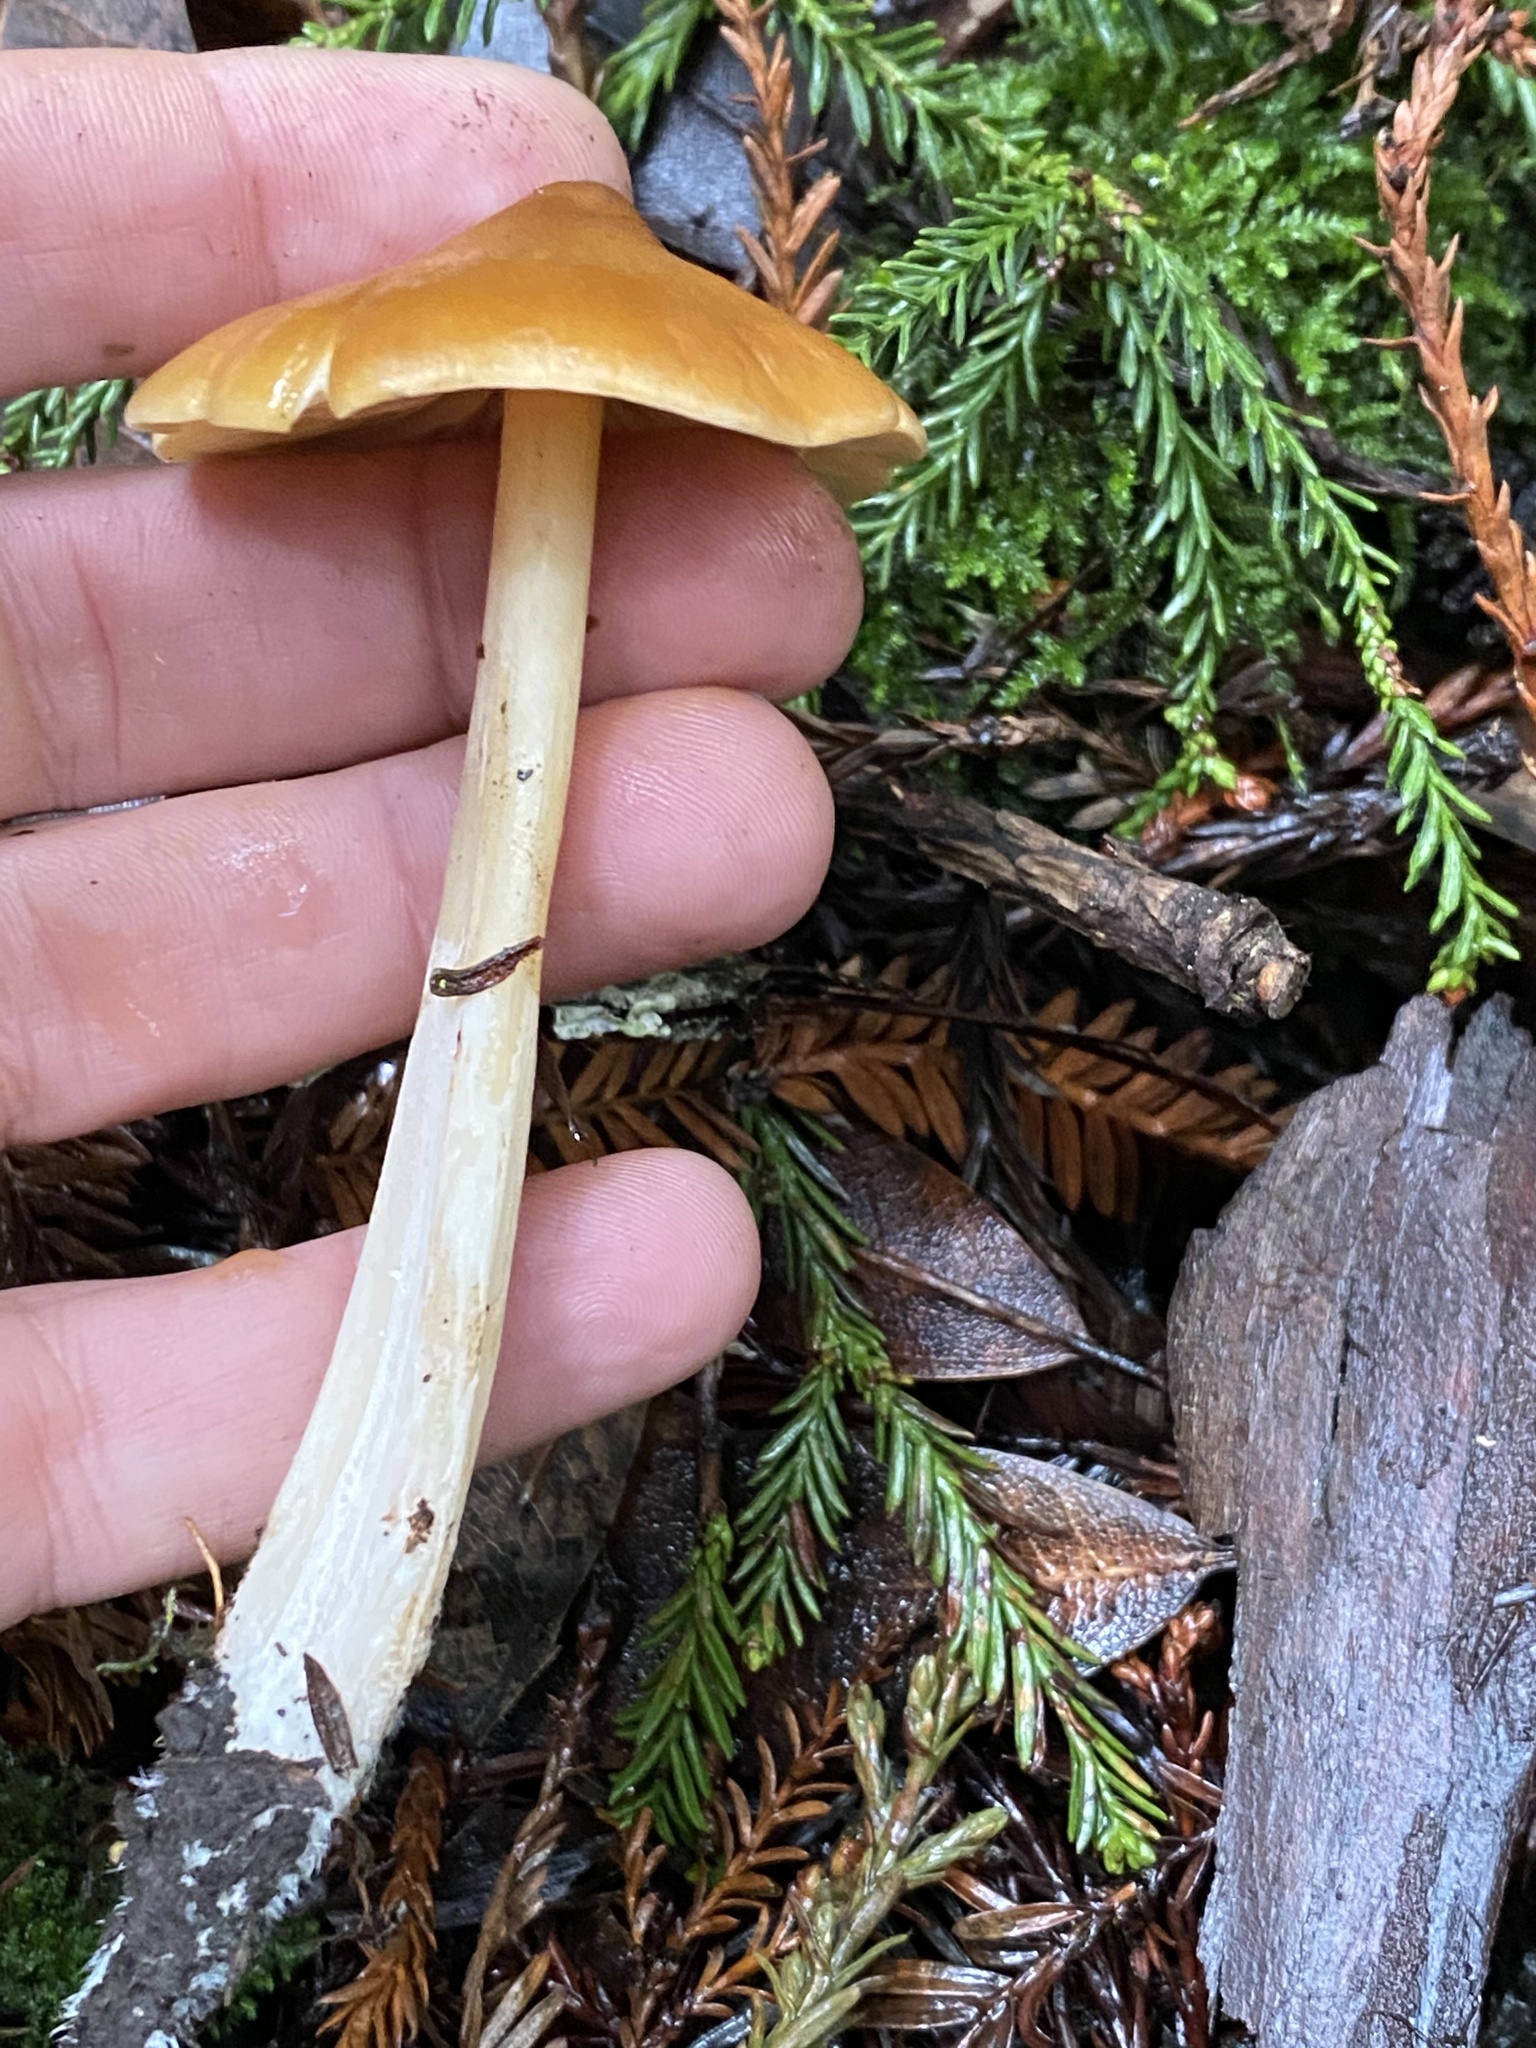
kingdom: Fungi
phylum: Basidiomycota
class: Agaricomycetes
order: Agaricales
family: Tricholomataceae
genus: Caulorhiza
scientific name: Caulorhiza umbonata
